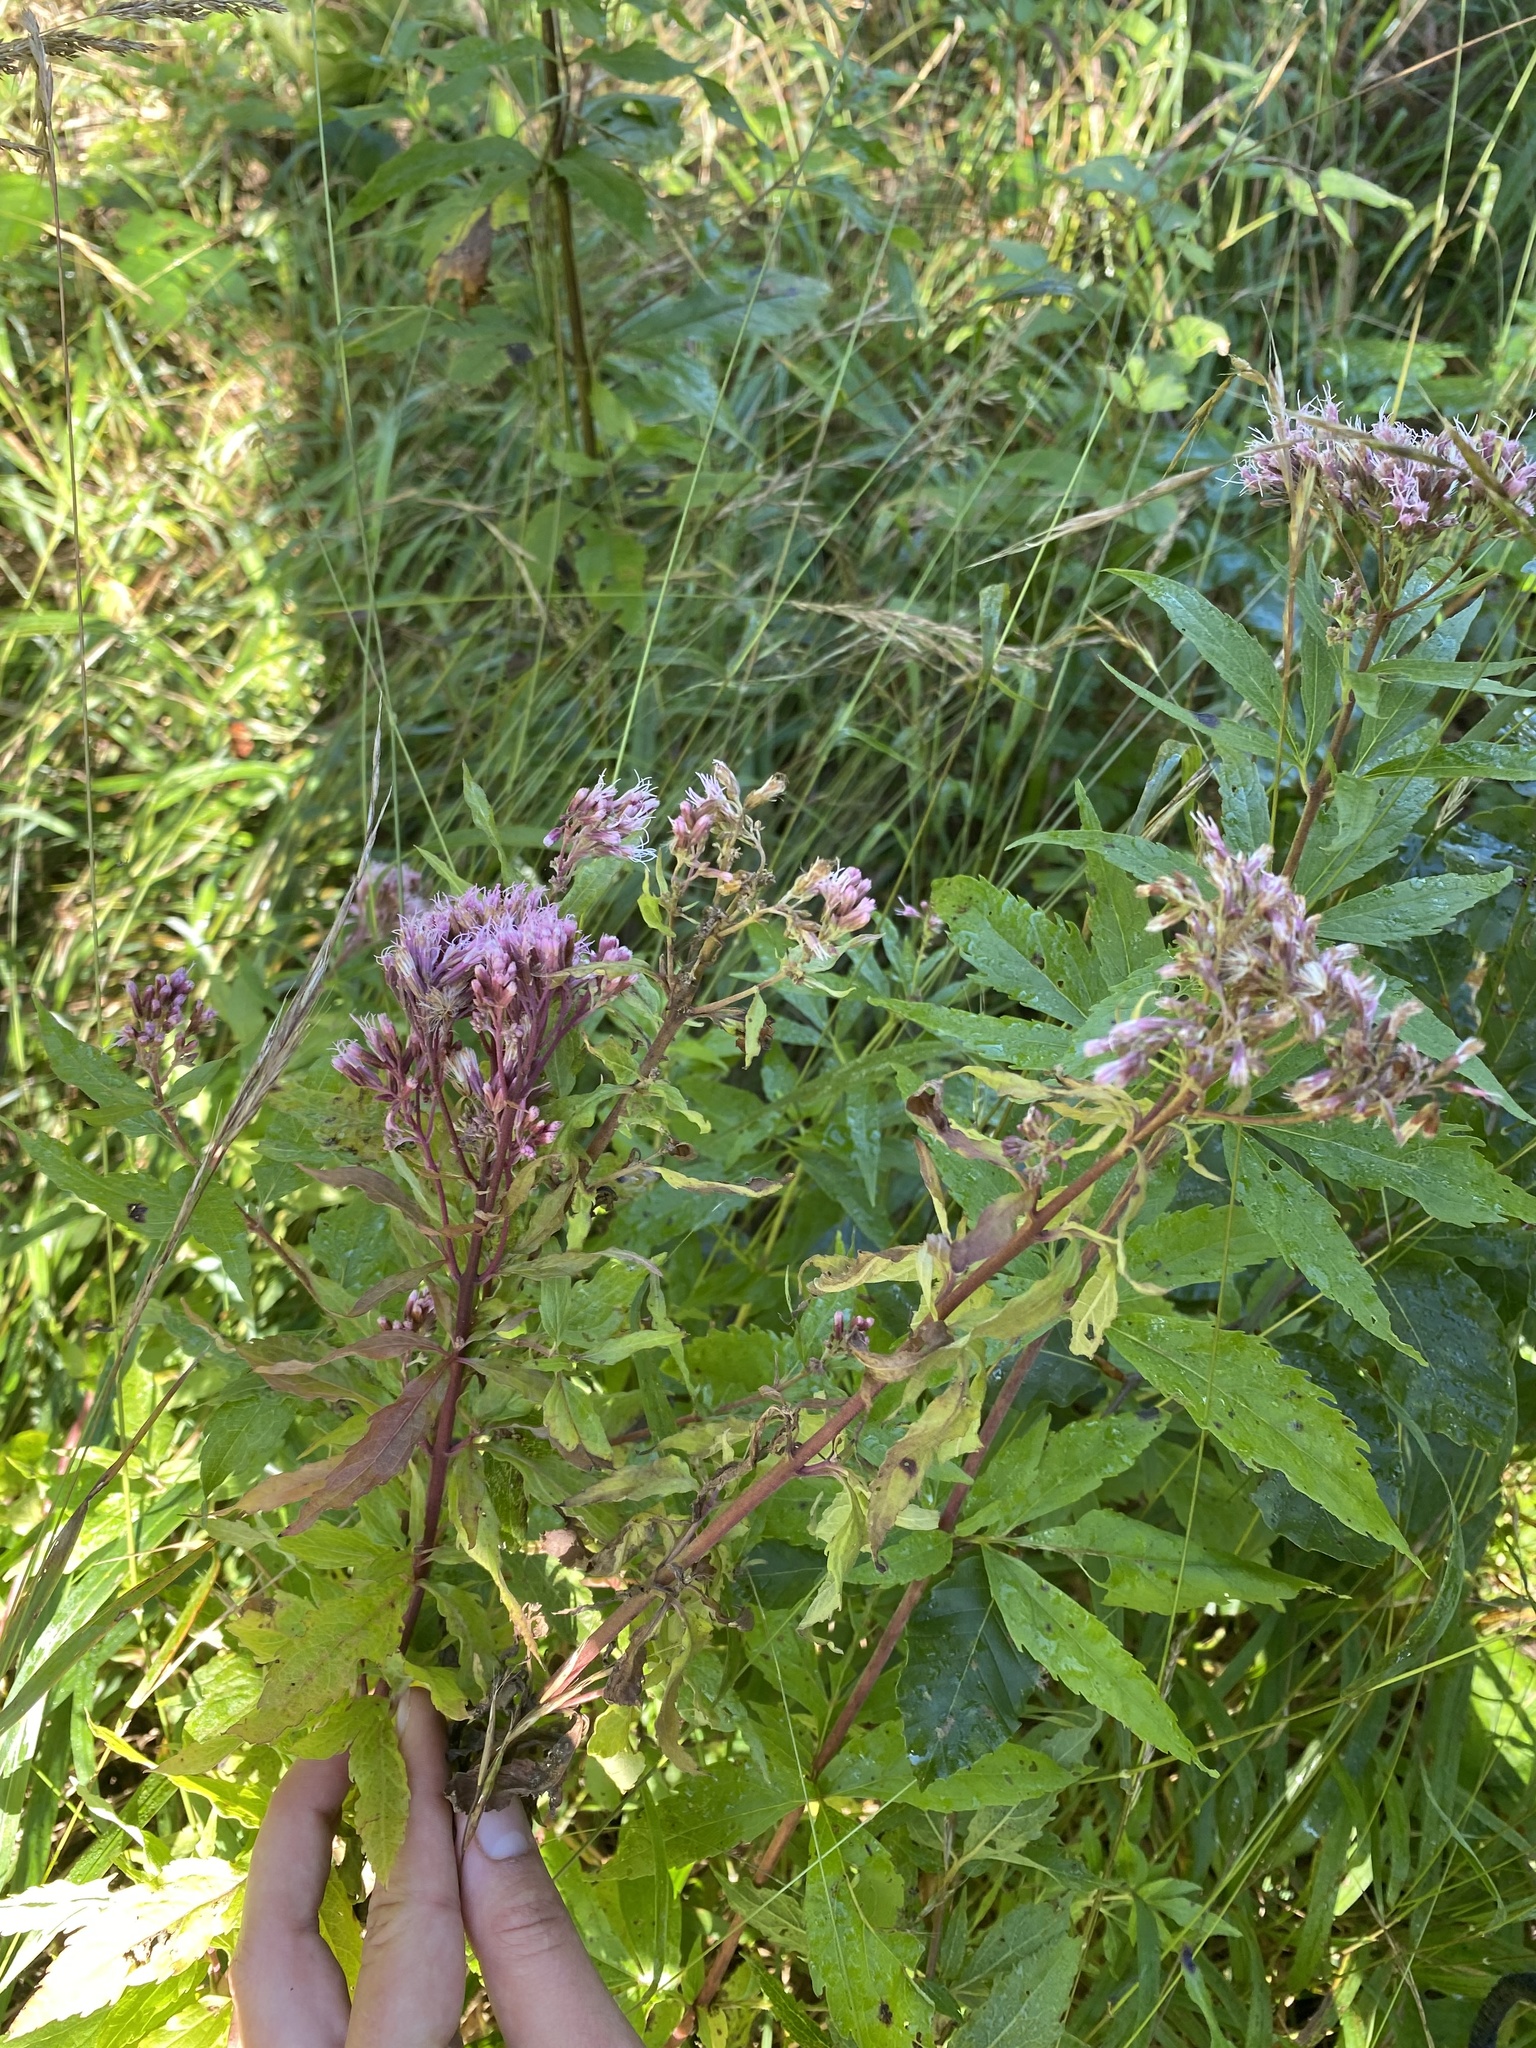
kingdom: Plantae
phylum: Tracheophyta
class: Magnoliopsida
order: Asterales
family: Asteraceae
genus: Eupatorium
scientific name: Eupatorium cannabinum
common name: Hemp-agrimony
